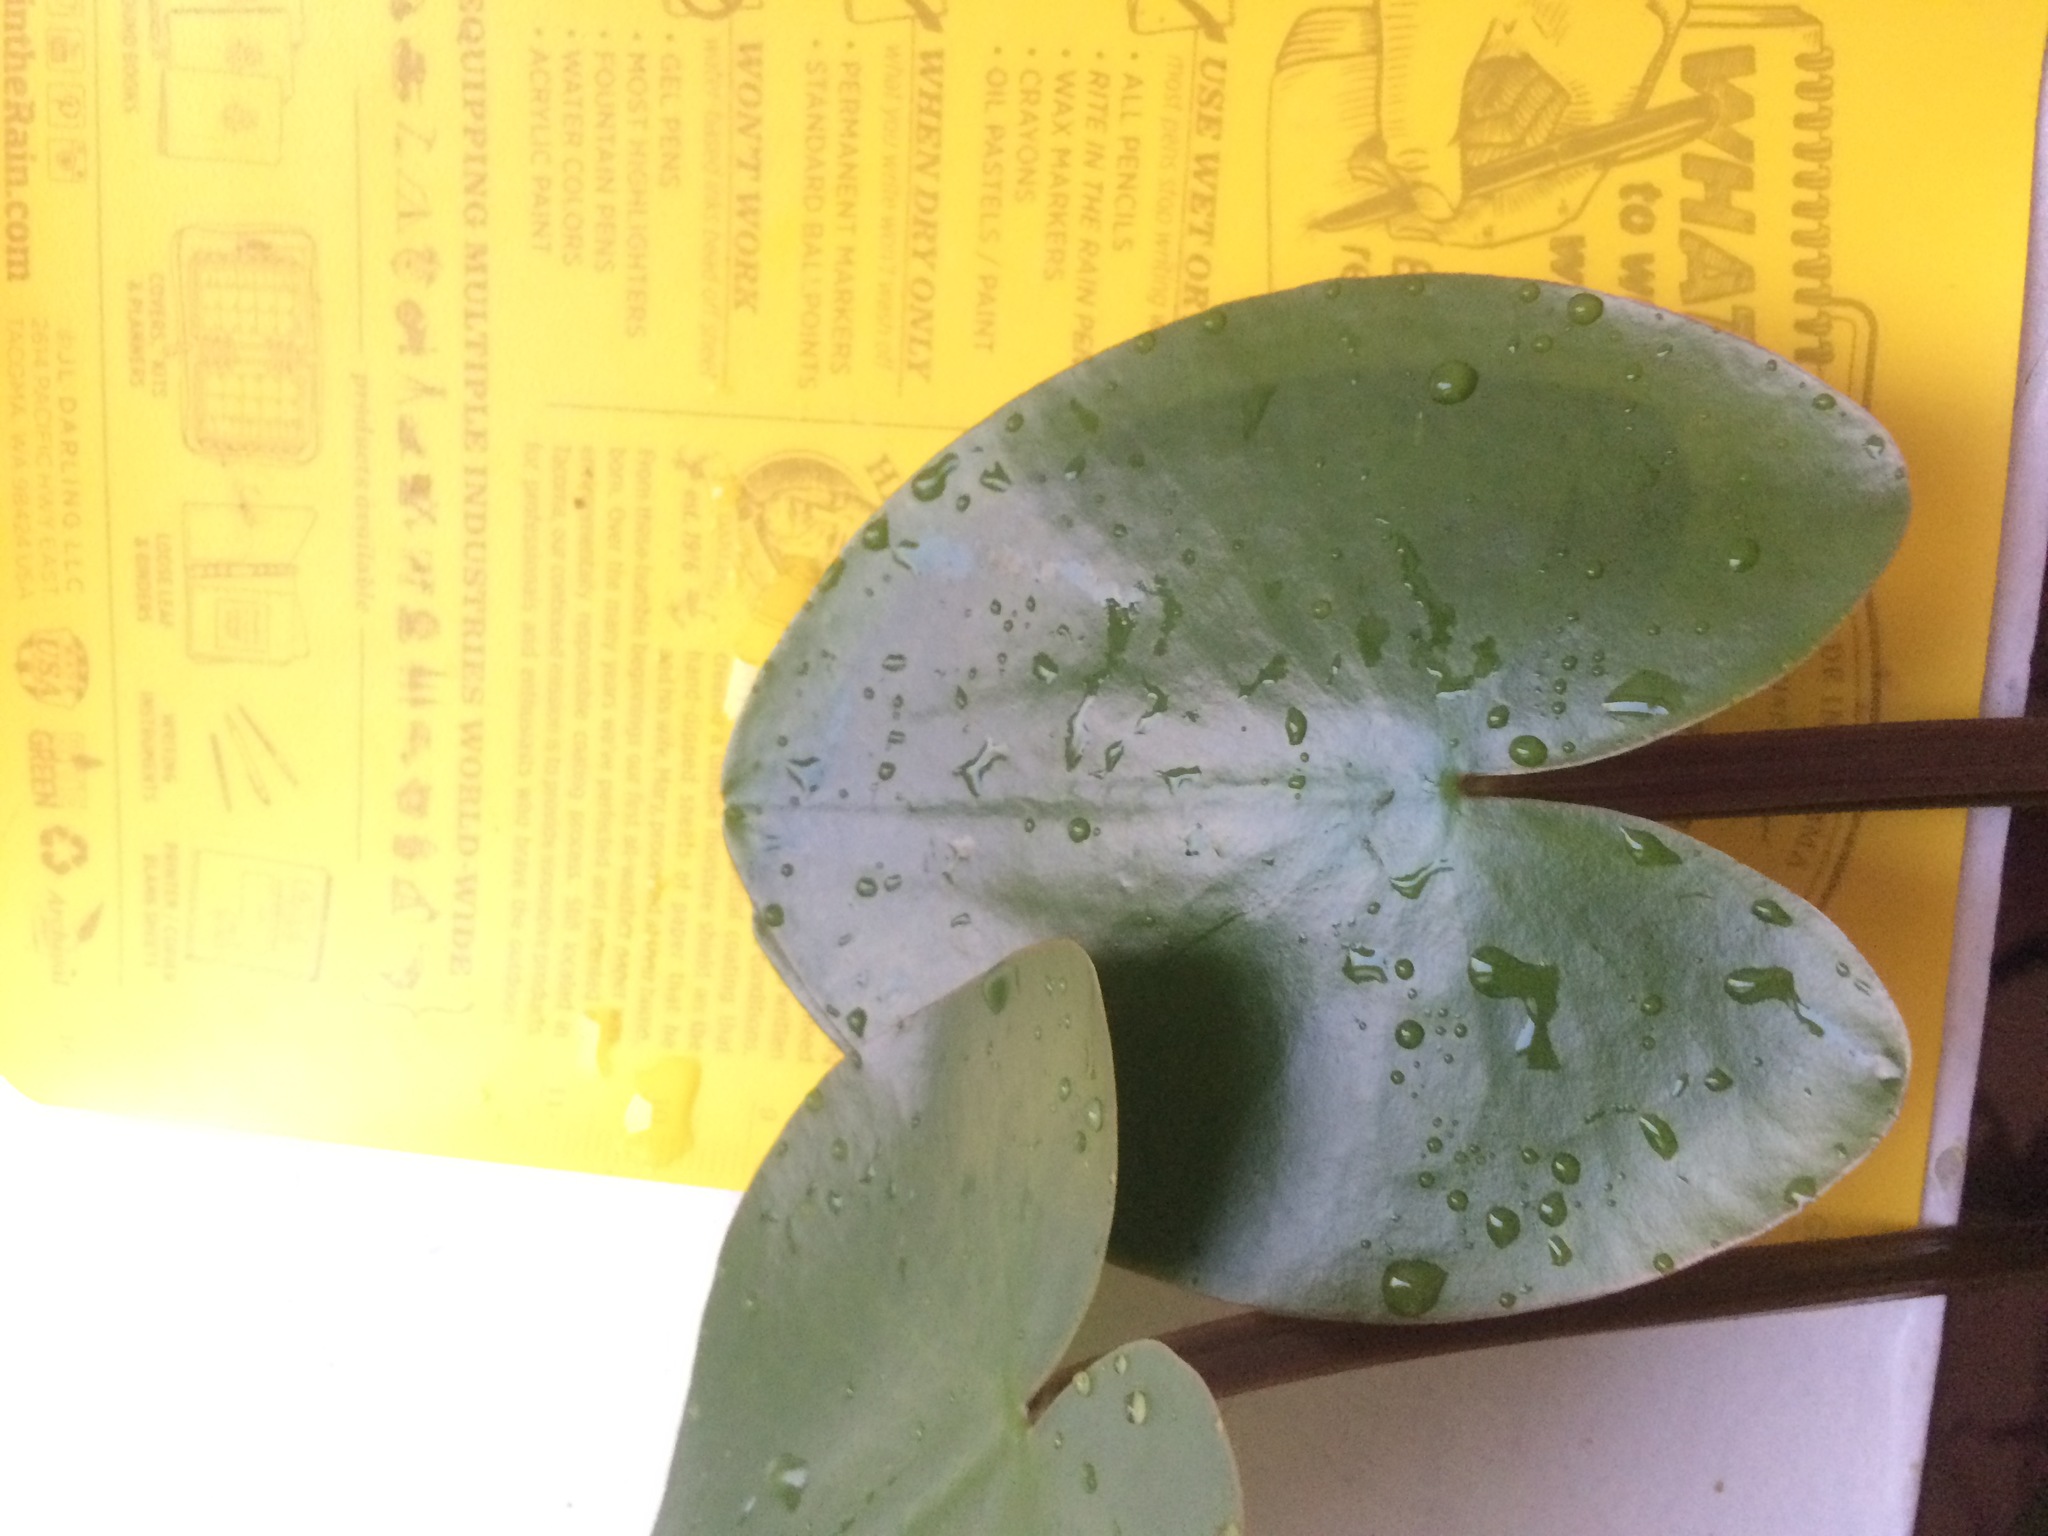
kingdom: Plantae
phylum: Tracheophyta
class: Magnoliopsida
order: Nymphaeales
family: Nymphaeaceae
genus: Nuphar
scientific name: Nuphar variegata
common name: Beaver-root
